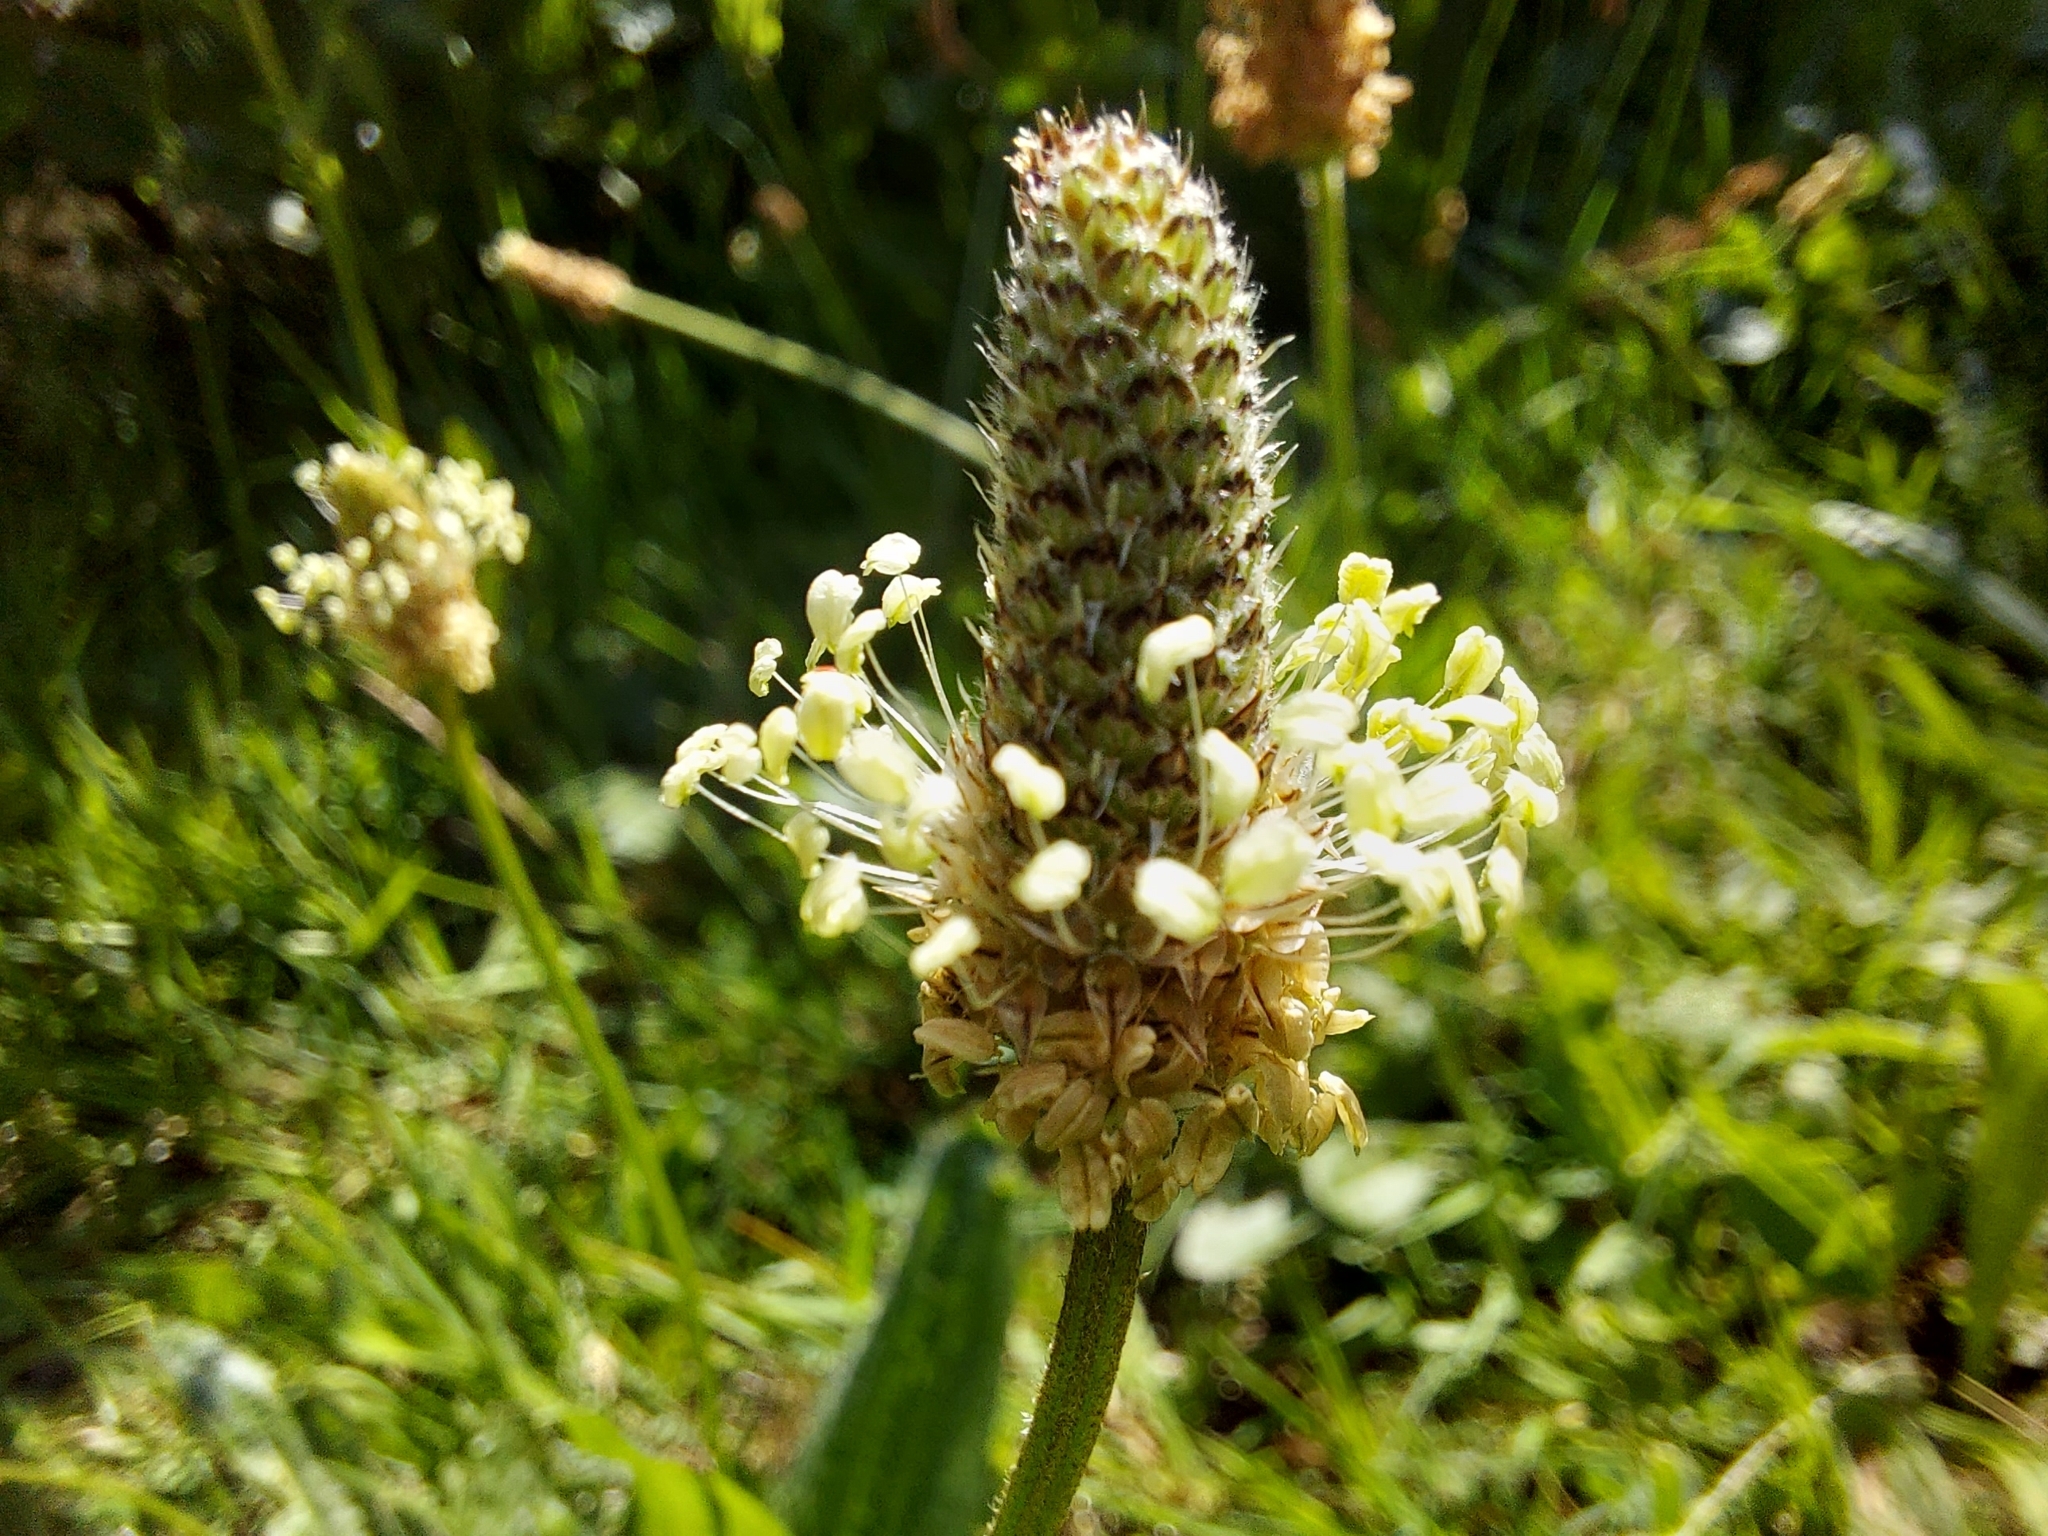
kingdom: Plantae
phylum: Tracheophyta
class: Magnoliopsida
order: Lamiales
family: Plantaginaceae
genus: Plantago
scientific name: Plantago lanceolata
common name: Ribwort plantain
